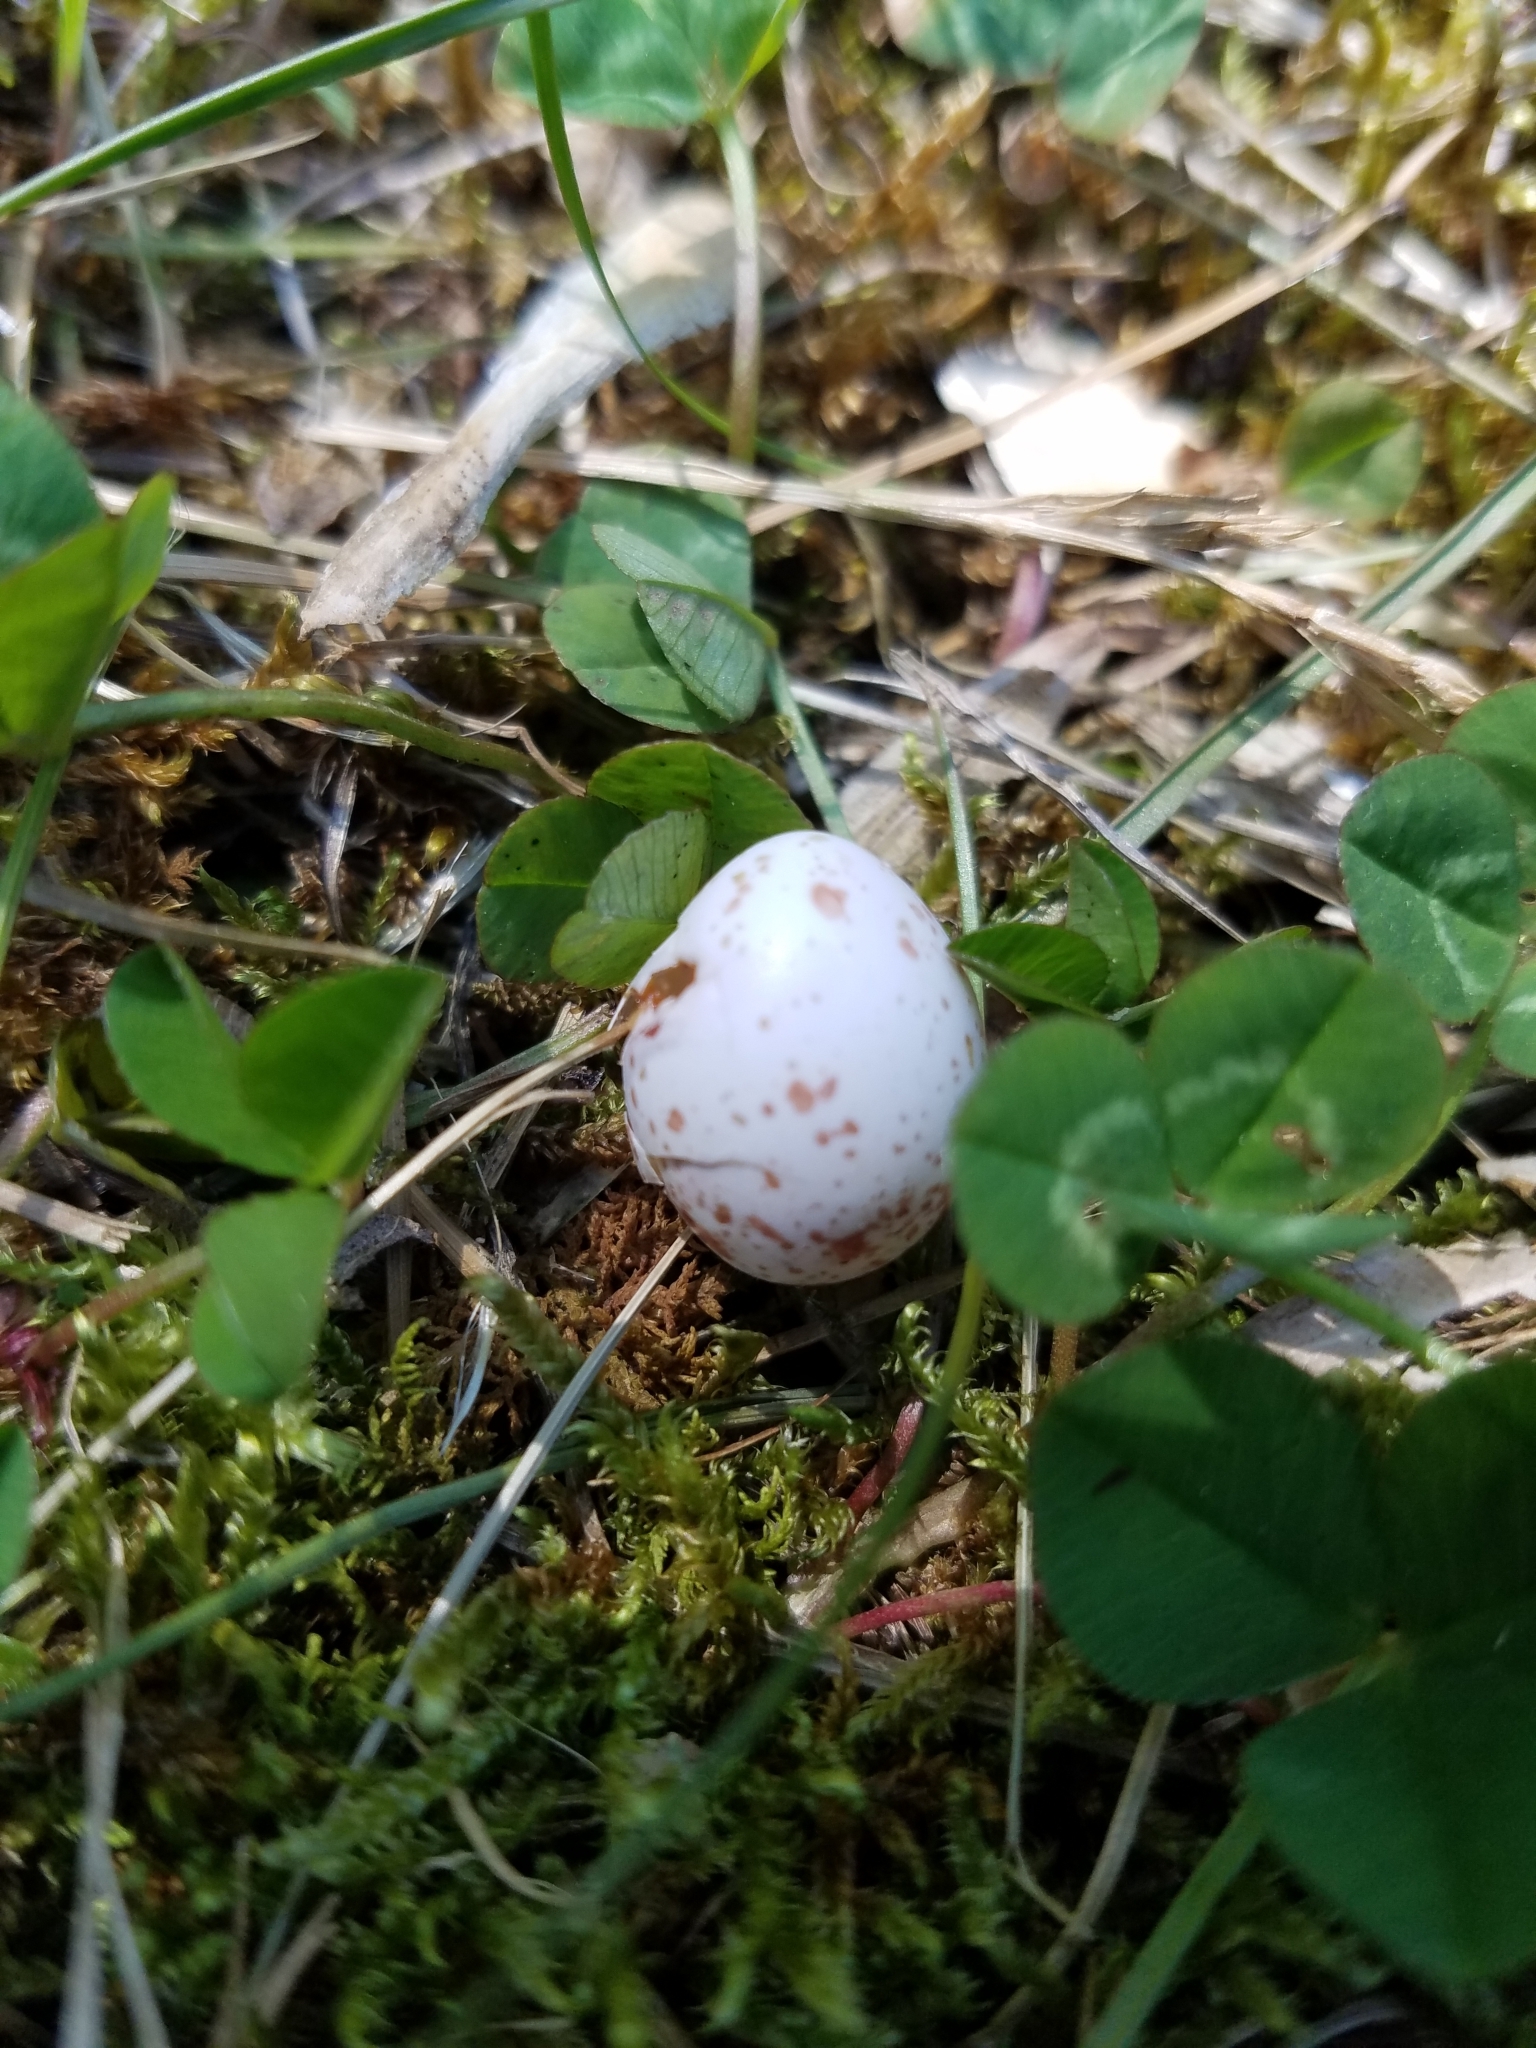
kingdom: Animalia
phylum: Chordata
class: Aves
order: Passeriformes
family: Paridae
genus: Poecile
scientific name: Poecile carolinensis
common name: Carolina chickadee
